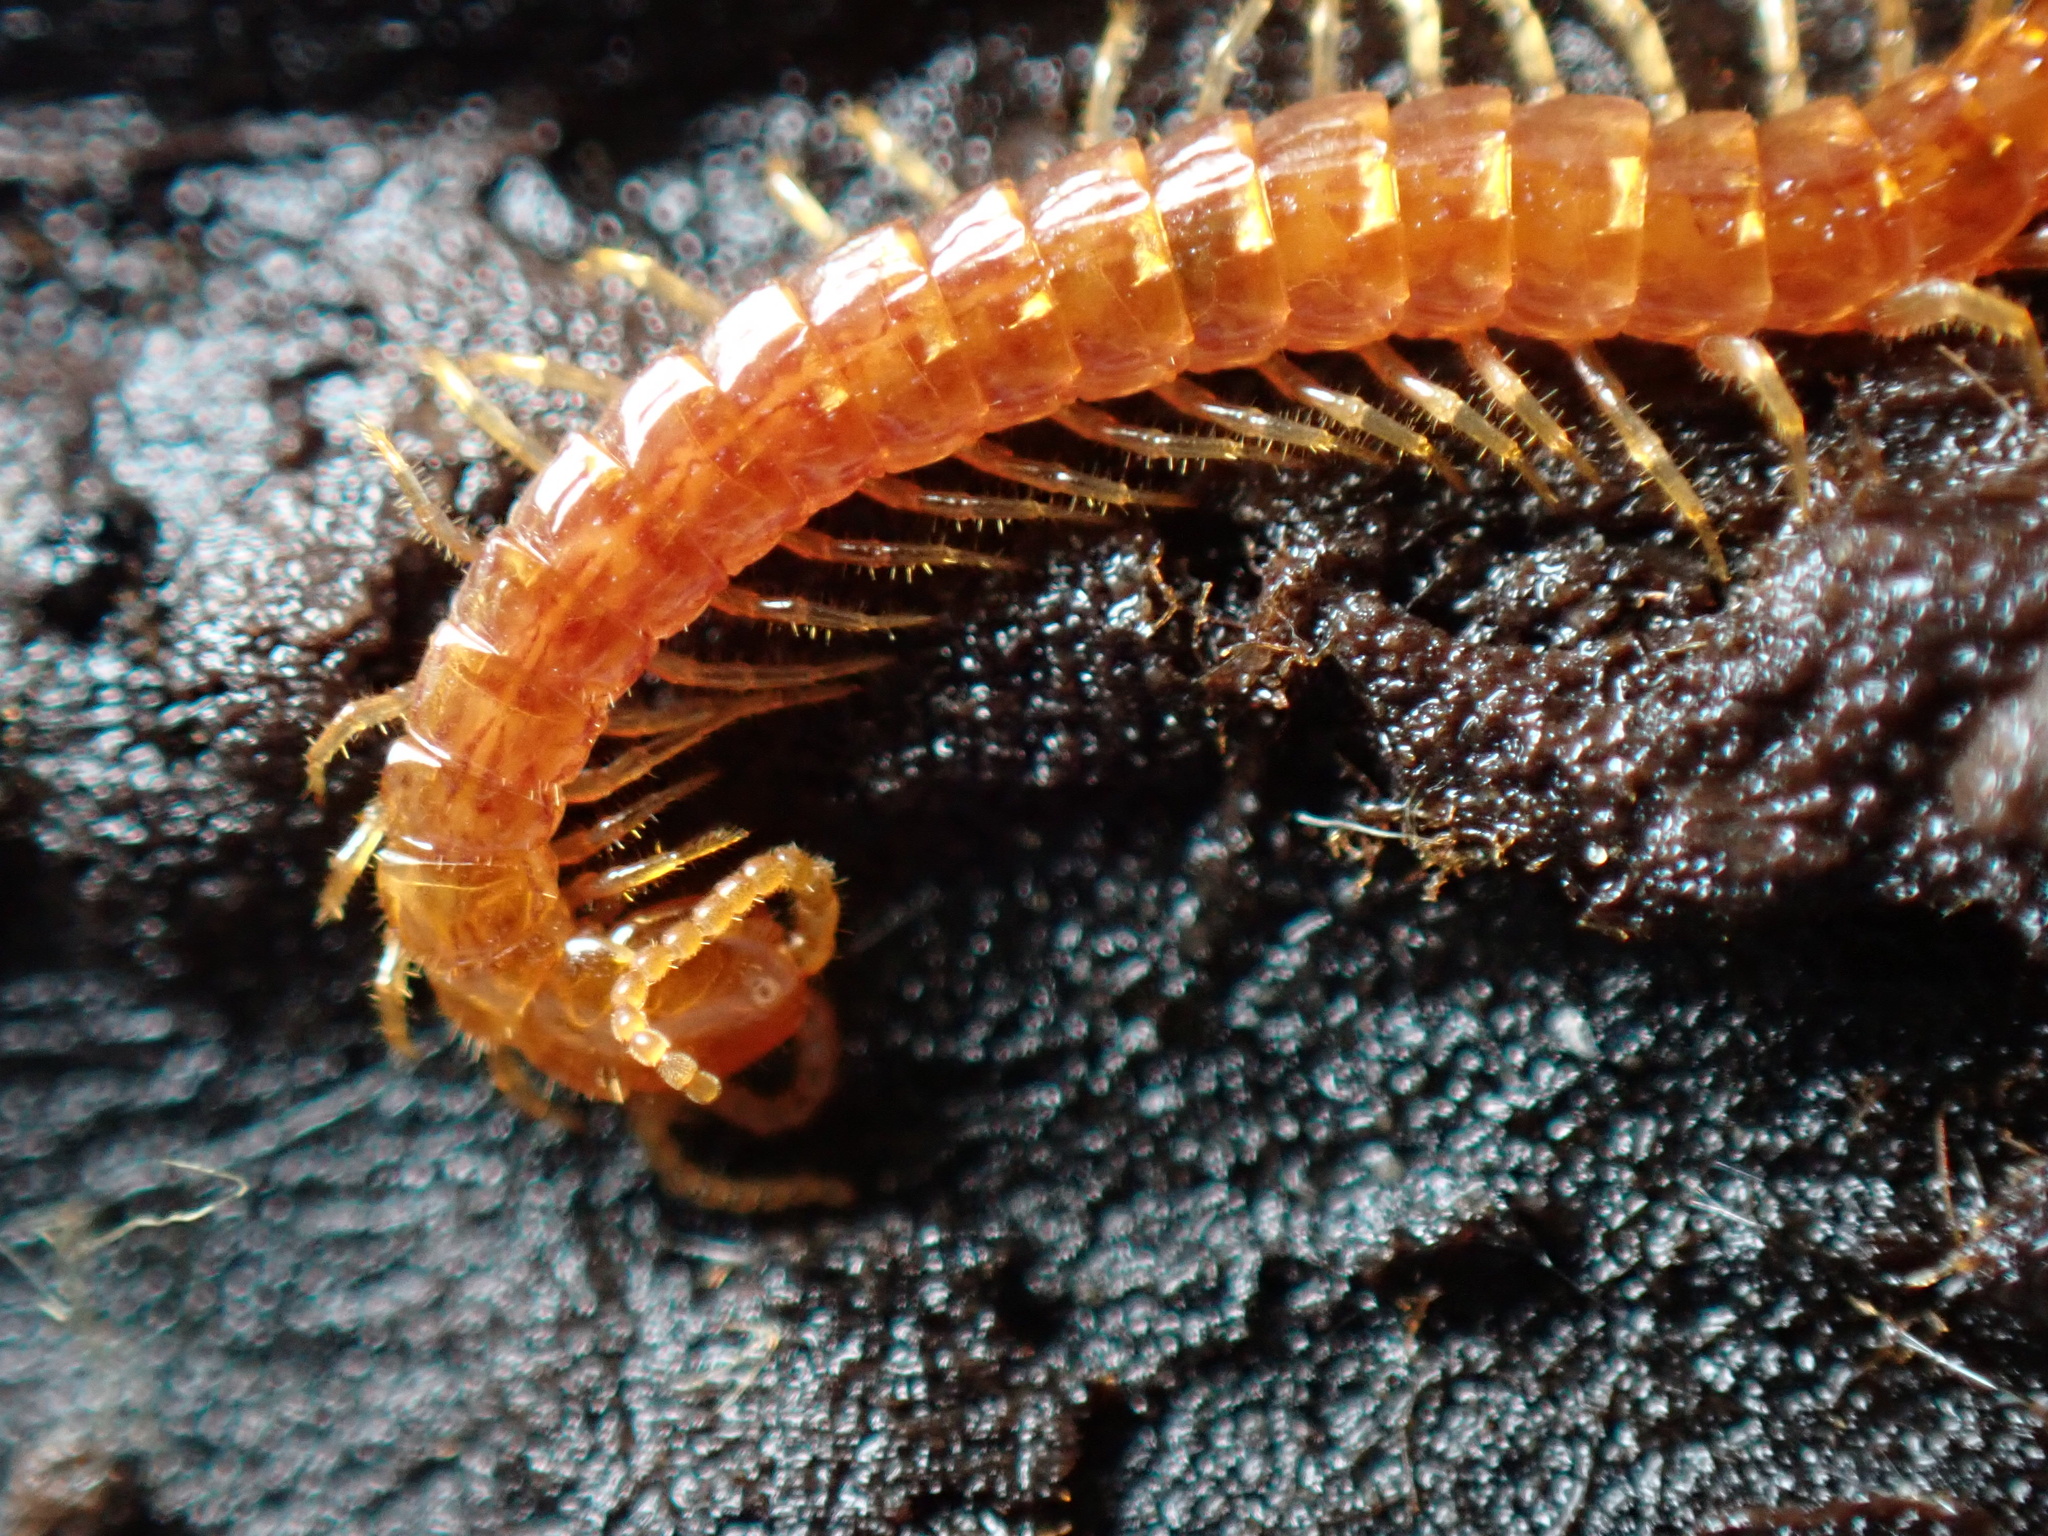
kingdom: Animalia
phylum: Arthropoda
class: Chilopoda
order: Scolopendromorpha
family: Cryptopidae
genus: Cryptops
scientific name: Cryptops hortensis
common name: Centipede
